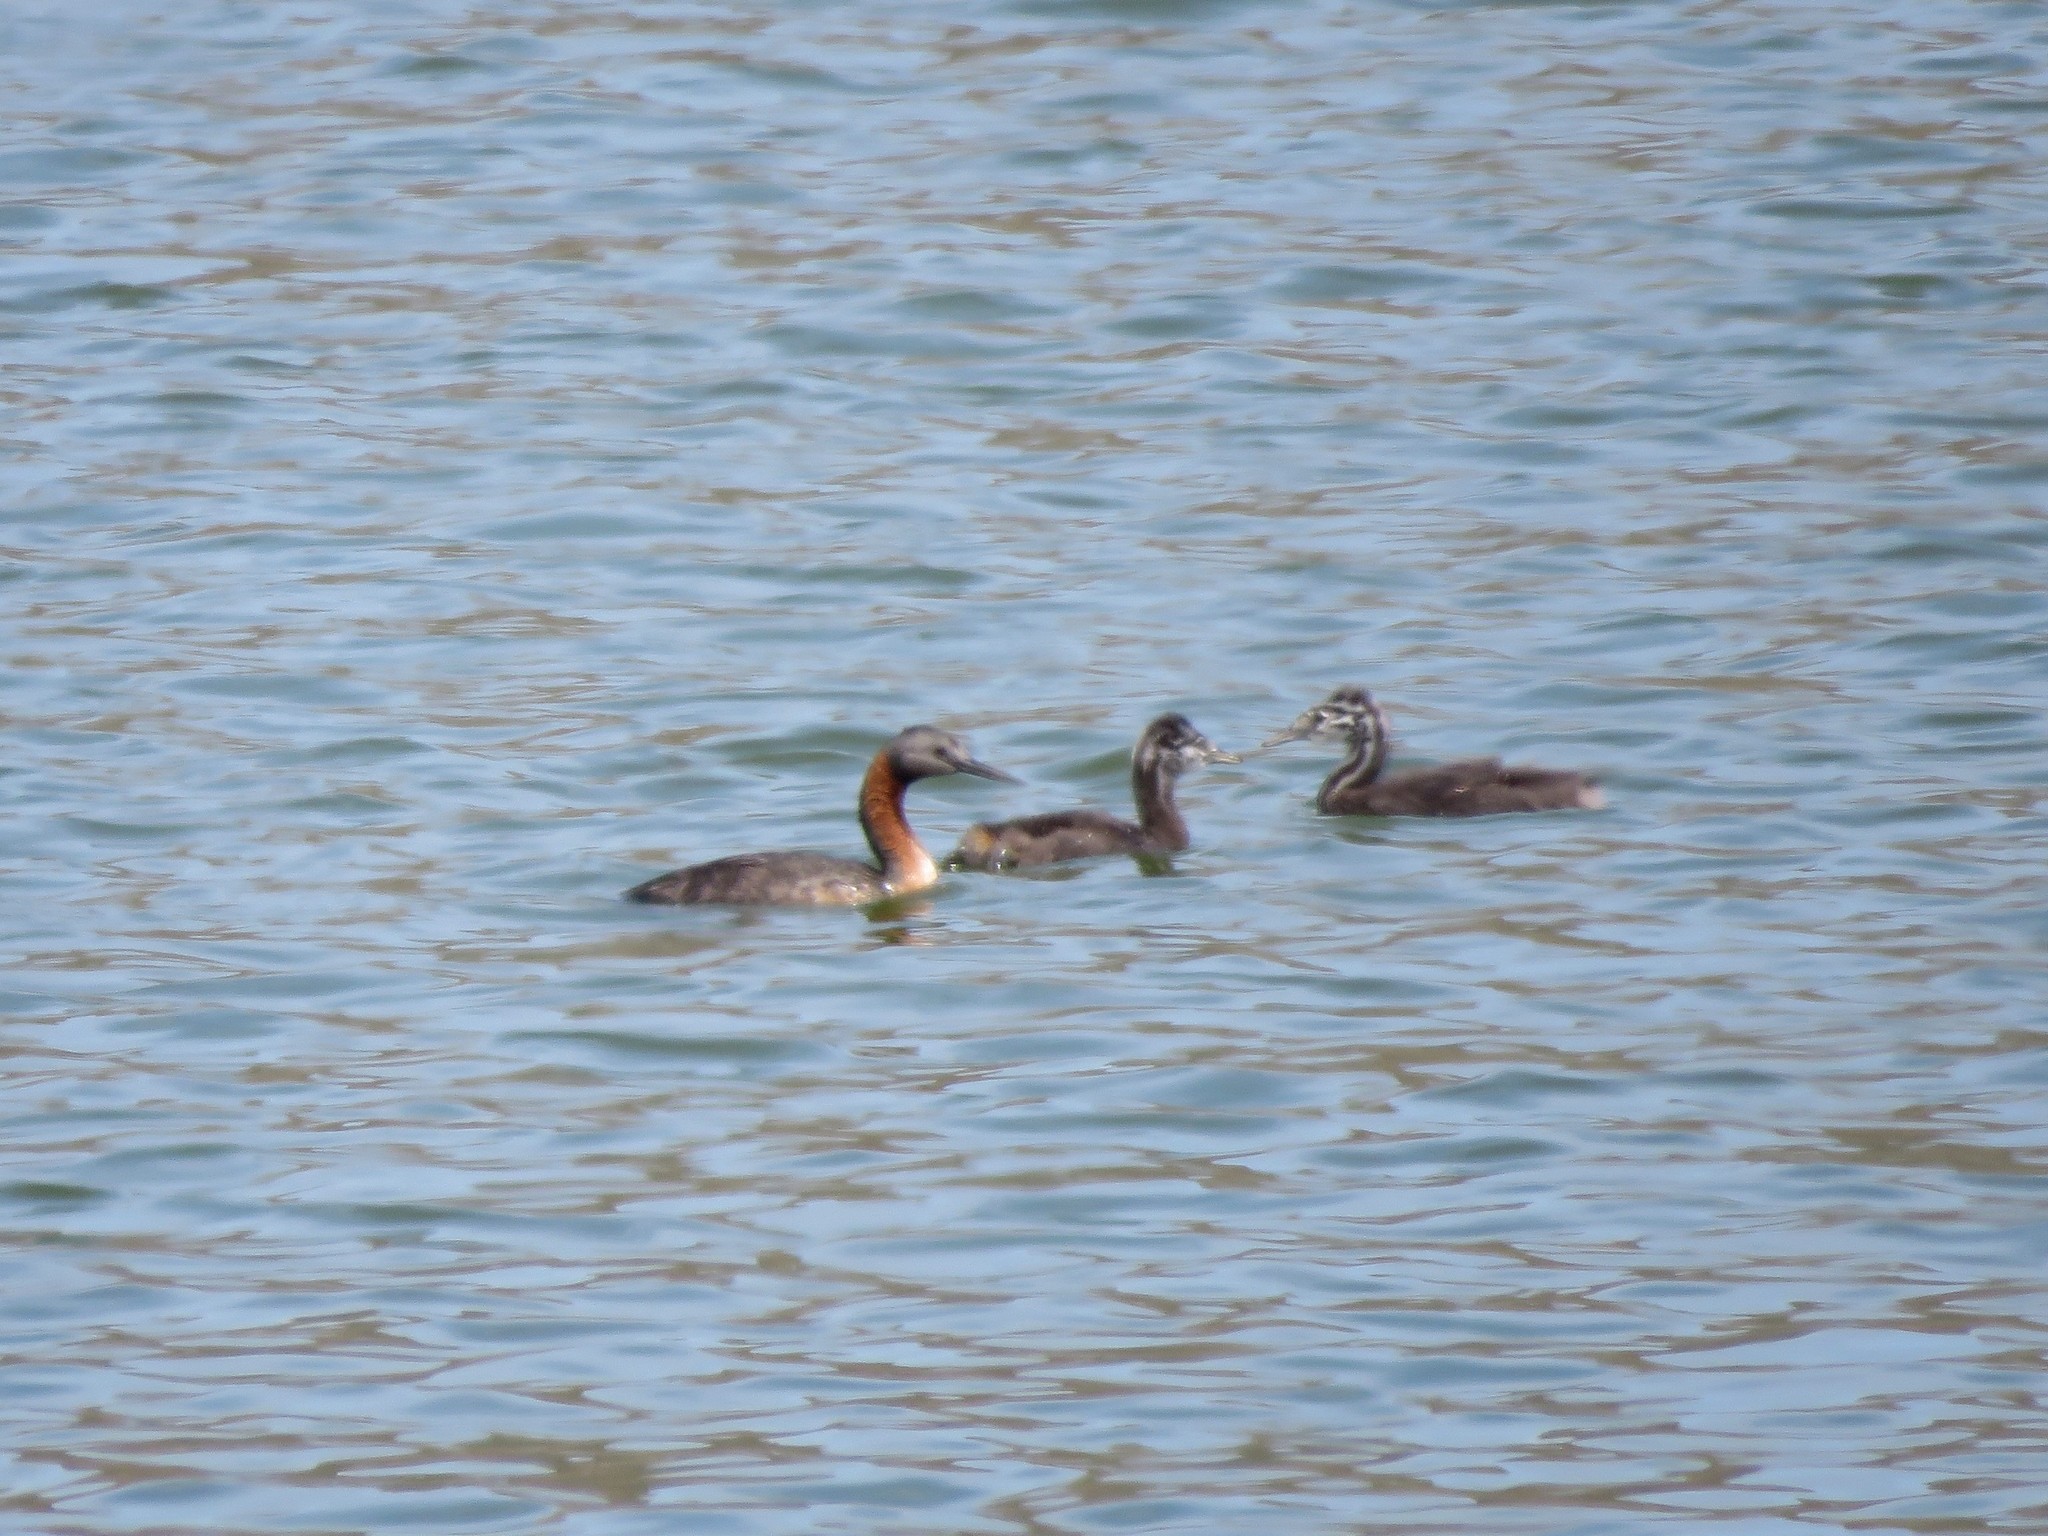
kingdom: Animalia
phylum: Chordata
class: Aves
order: Podicipediformes
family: Podicipedidae
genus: Podiceps
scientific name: Podiceps major
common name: Great grebe
